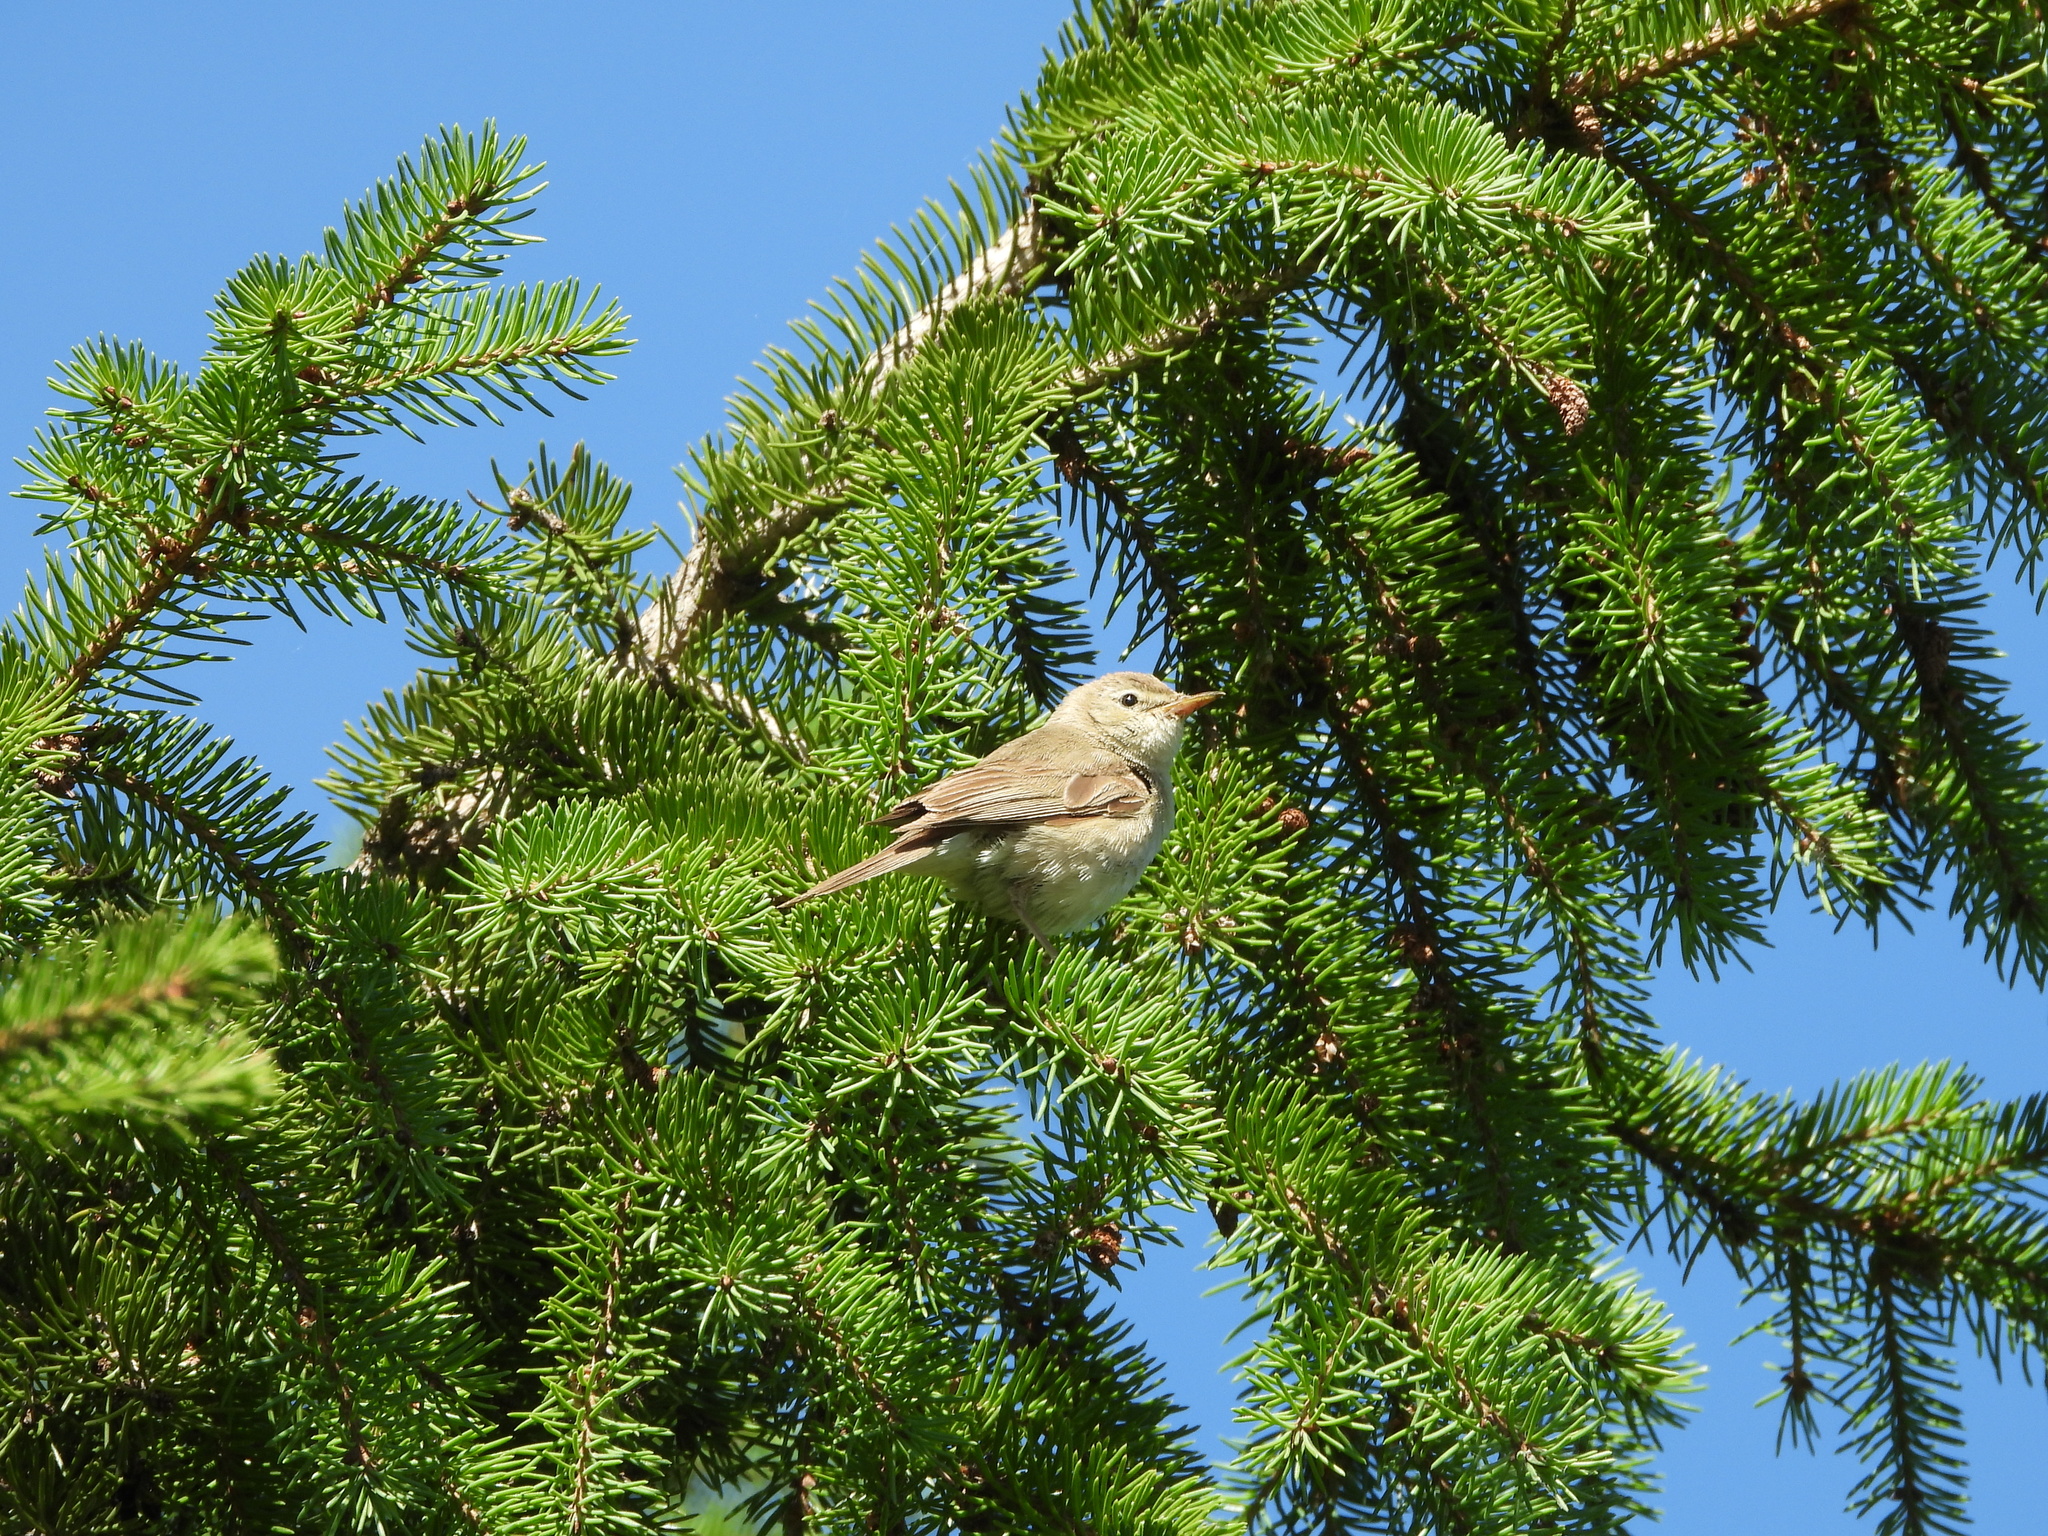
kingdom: Animalia
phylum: Chordata
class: Aves
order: Passeriformes
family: Acrocephalidae
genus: Iduna
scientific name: Iduna caligata
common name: Booted warbler
